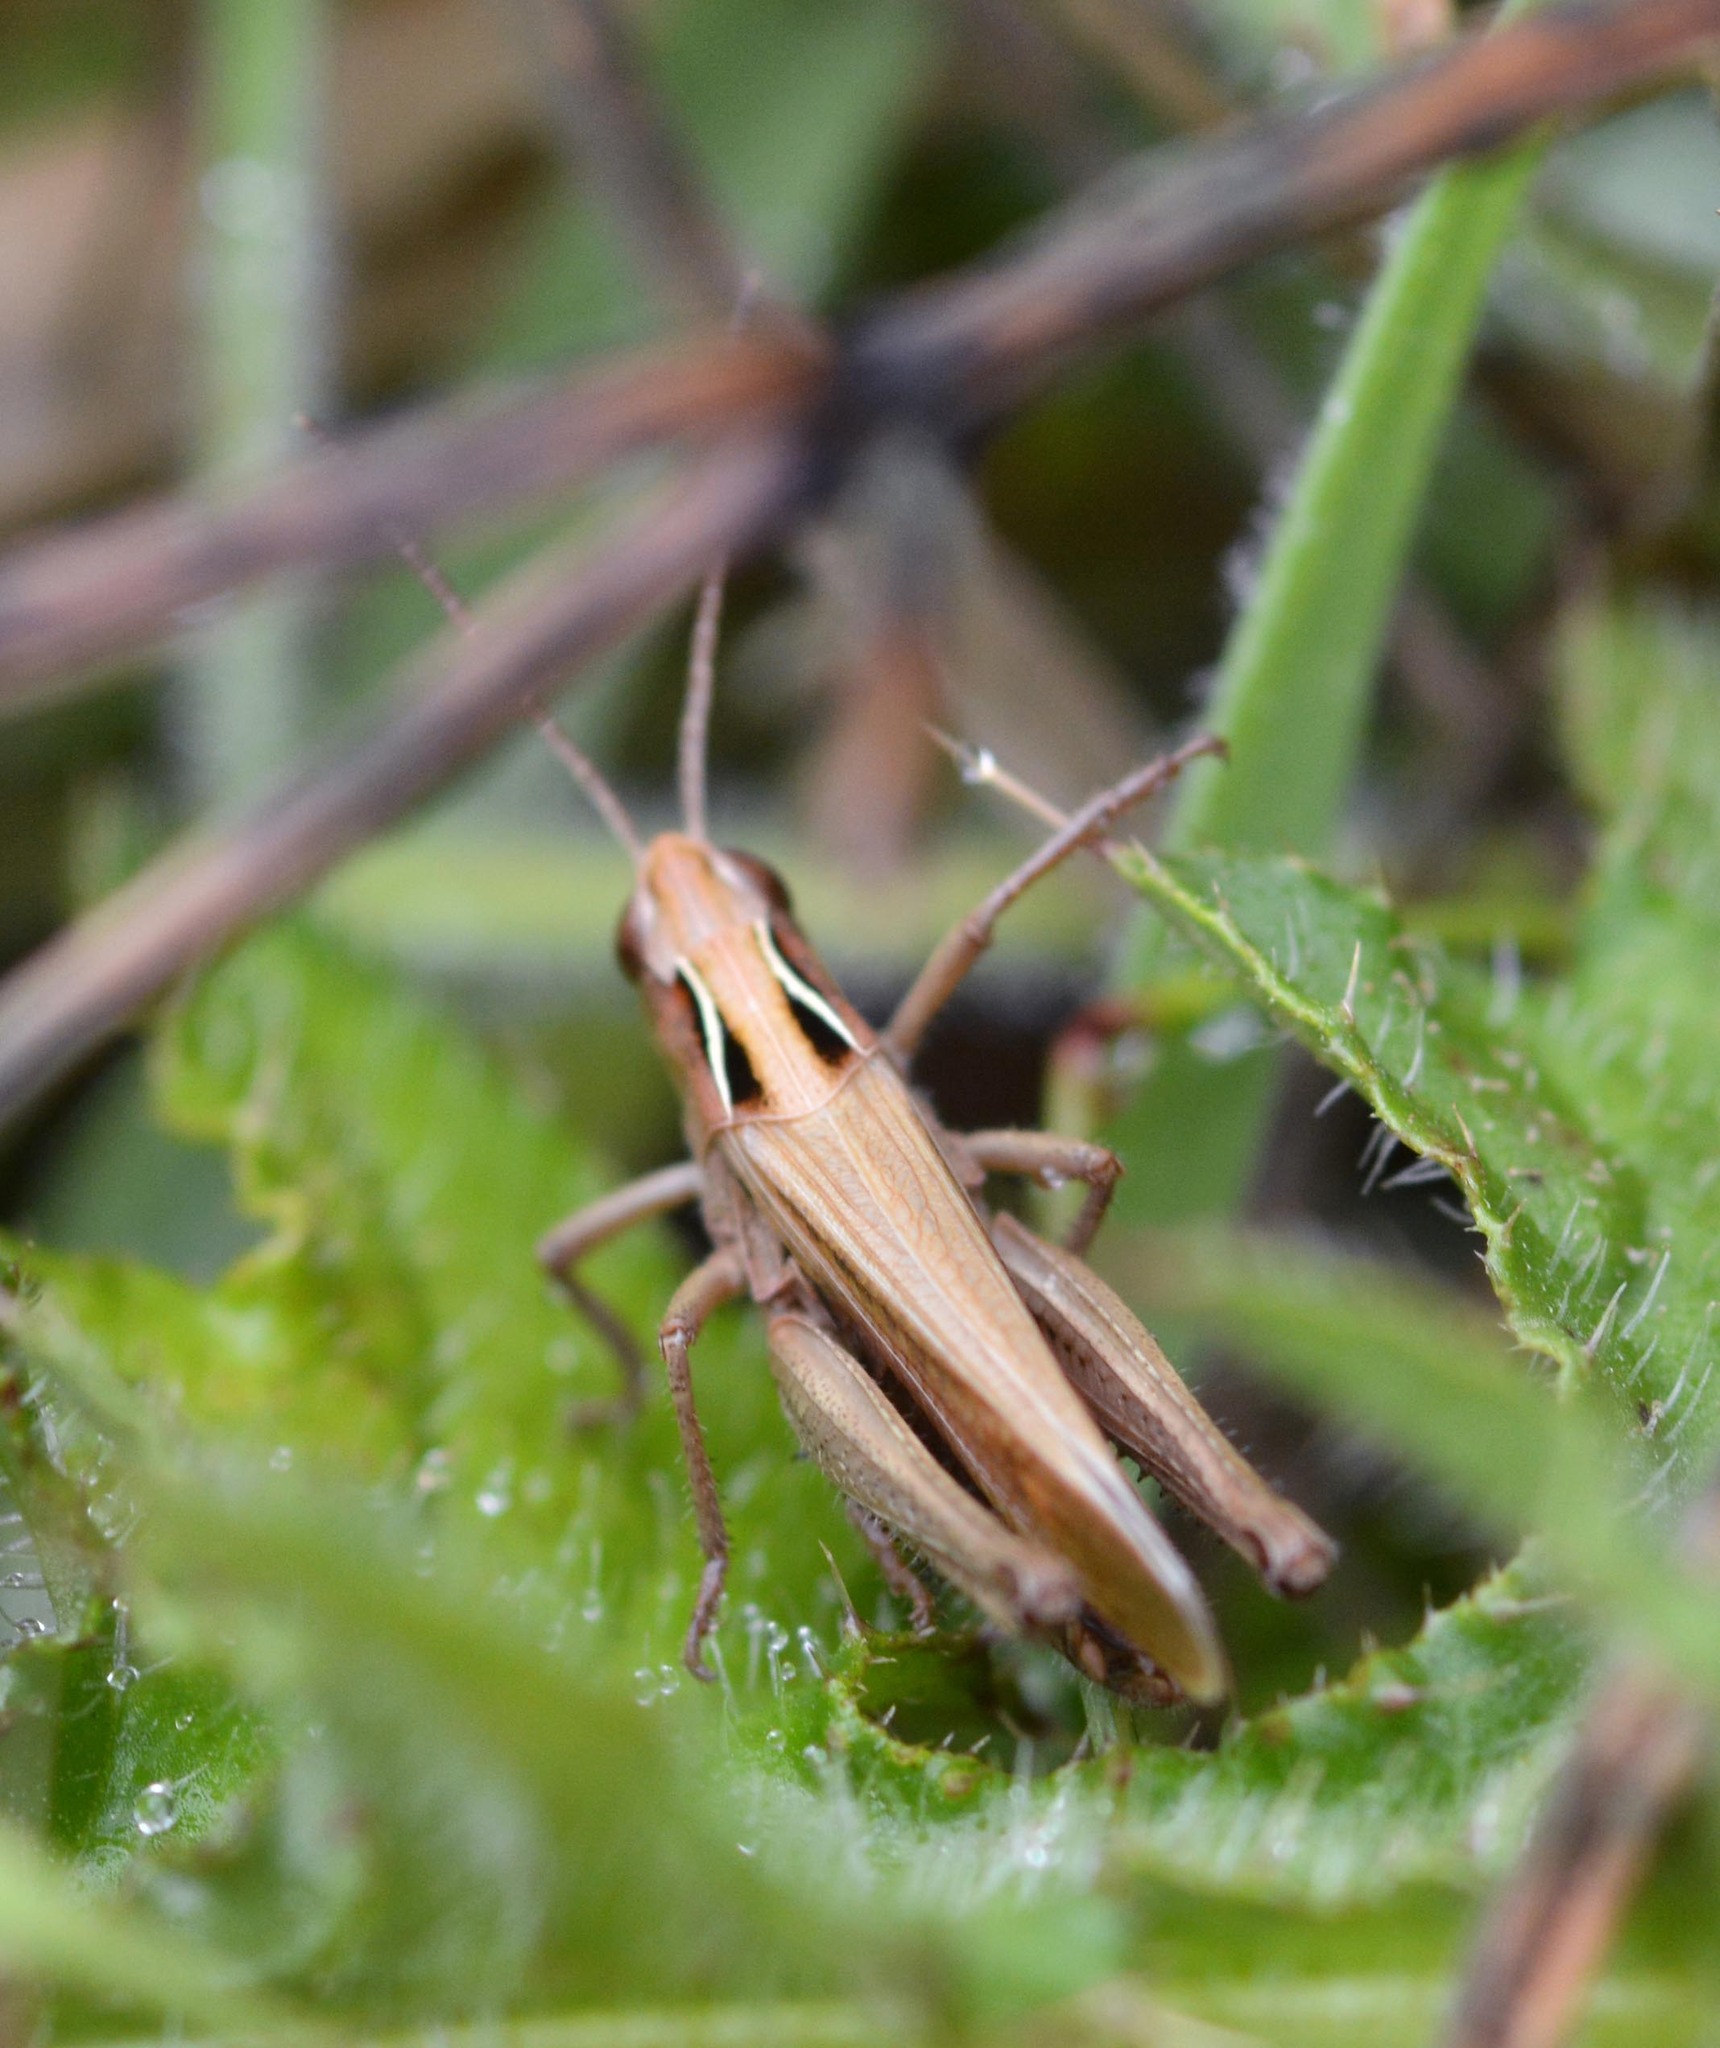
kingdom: Animalia
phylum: Arthropoda
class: Insecta
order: Orthoptera
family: Acrididae
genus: Omocestus
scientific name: Omocestus viridulus
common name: Common green grasshopper
